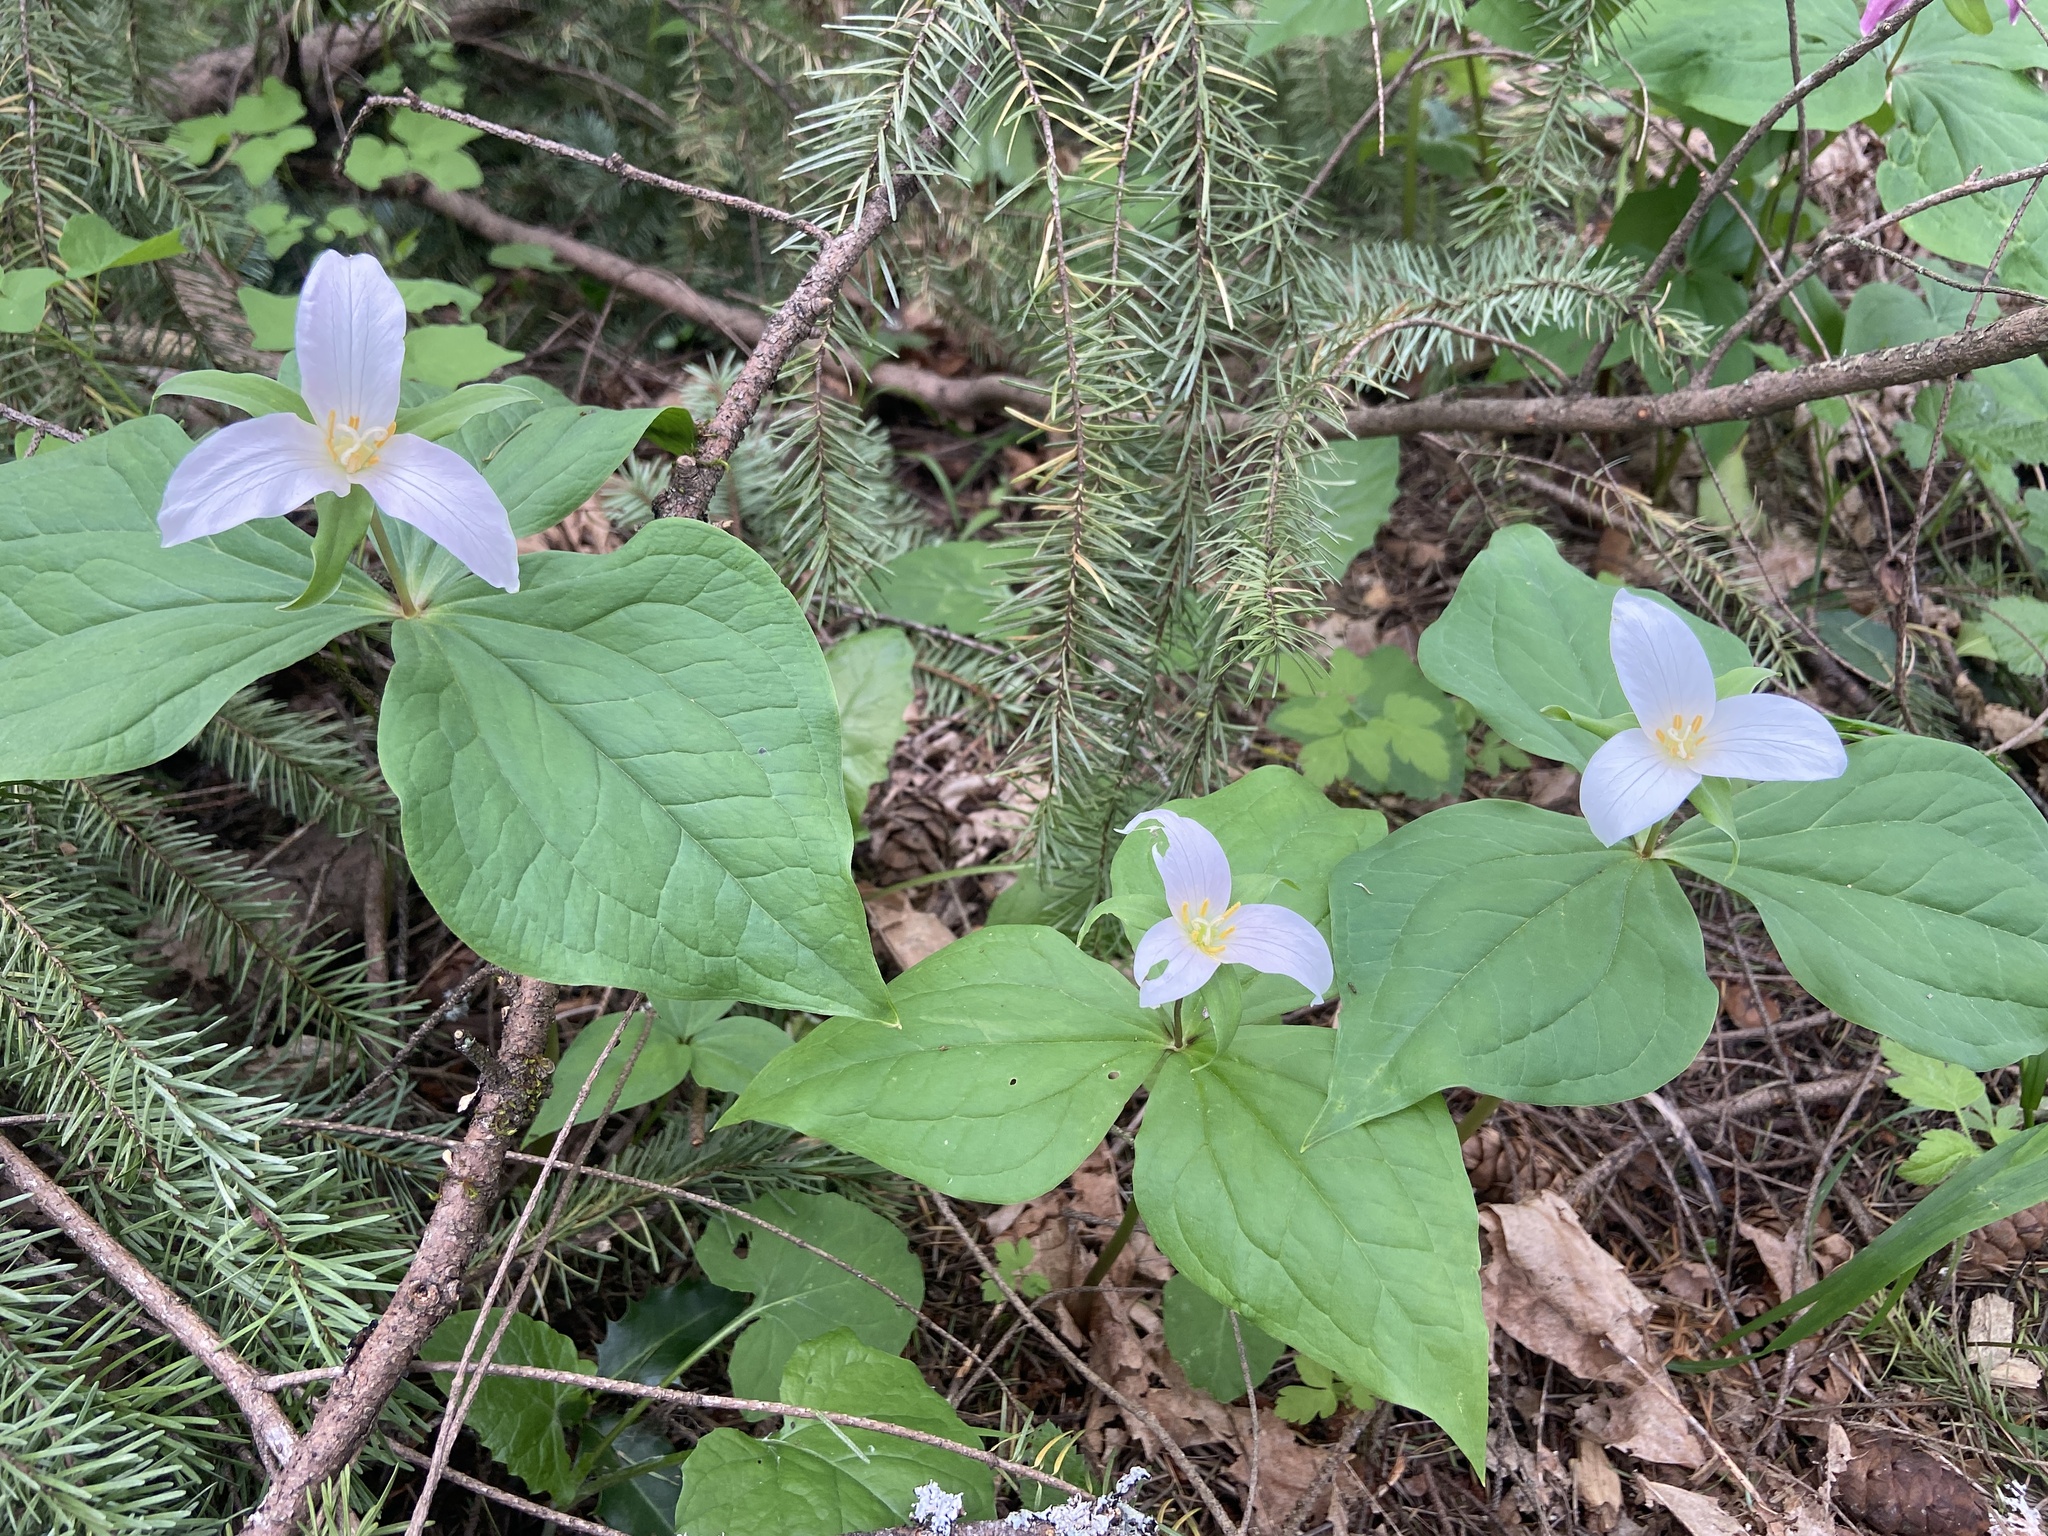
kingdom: Plantae
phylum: Tracheophyta
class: Liliopsida
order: Liliales
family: Melanthiaceae
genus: Trillium
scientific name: Trillium ovatum
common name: Pacific trillium
